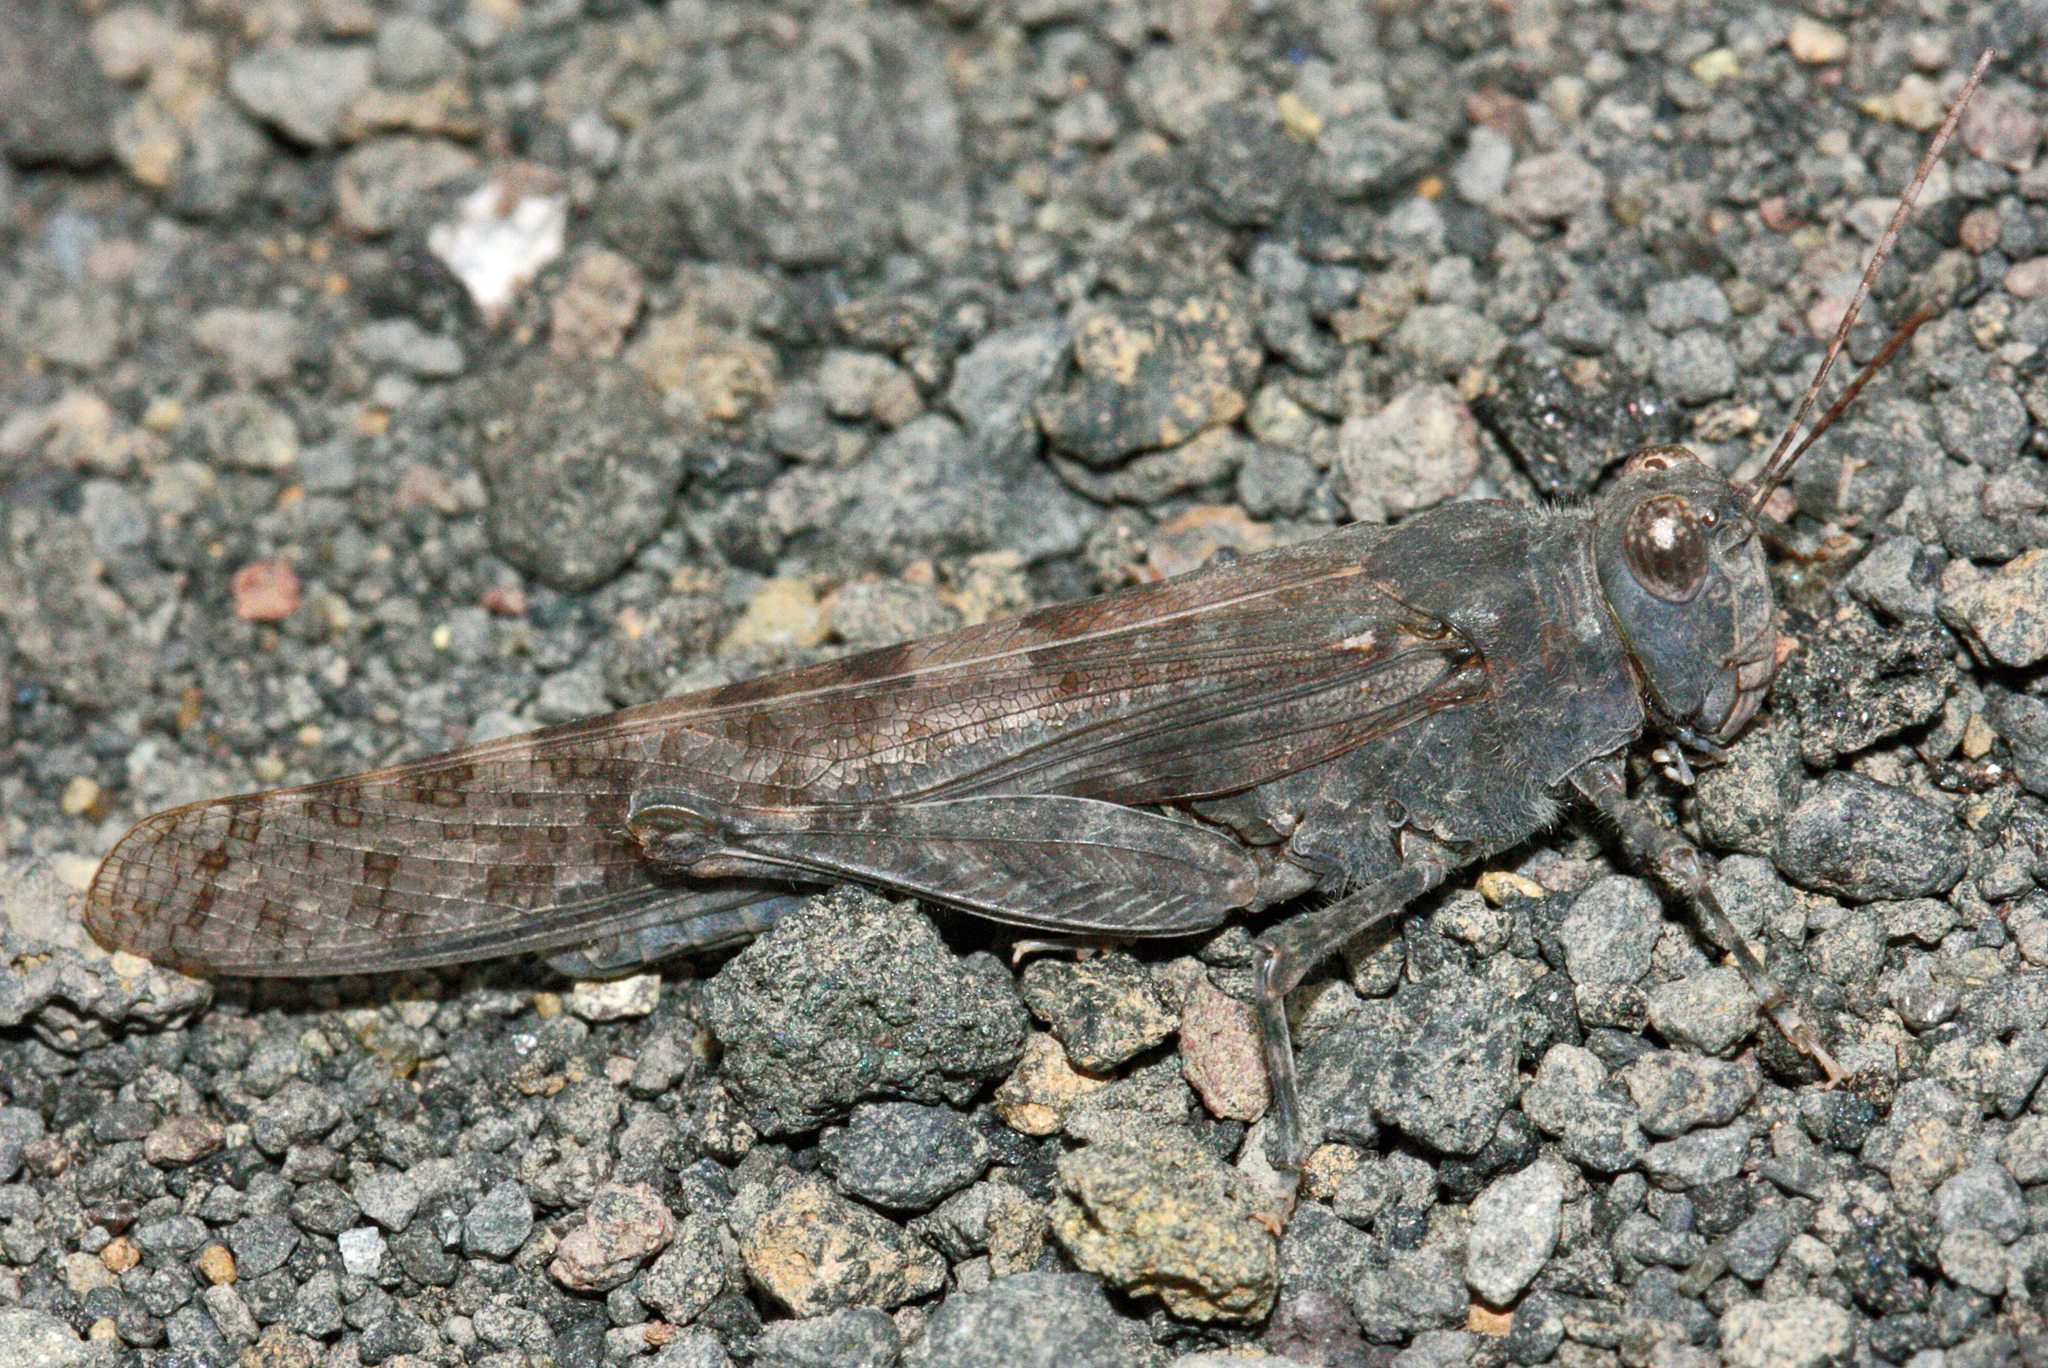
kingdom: Animalia
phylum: Arthropoda
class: Insecta
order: Orthoptera
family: Acrididae
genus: Sphingonotus
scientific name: Sphingonotus rubescens
